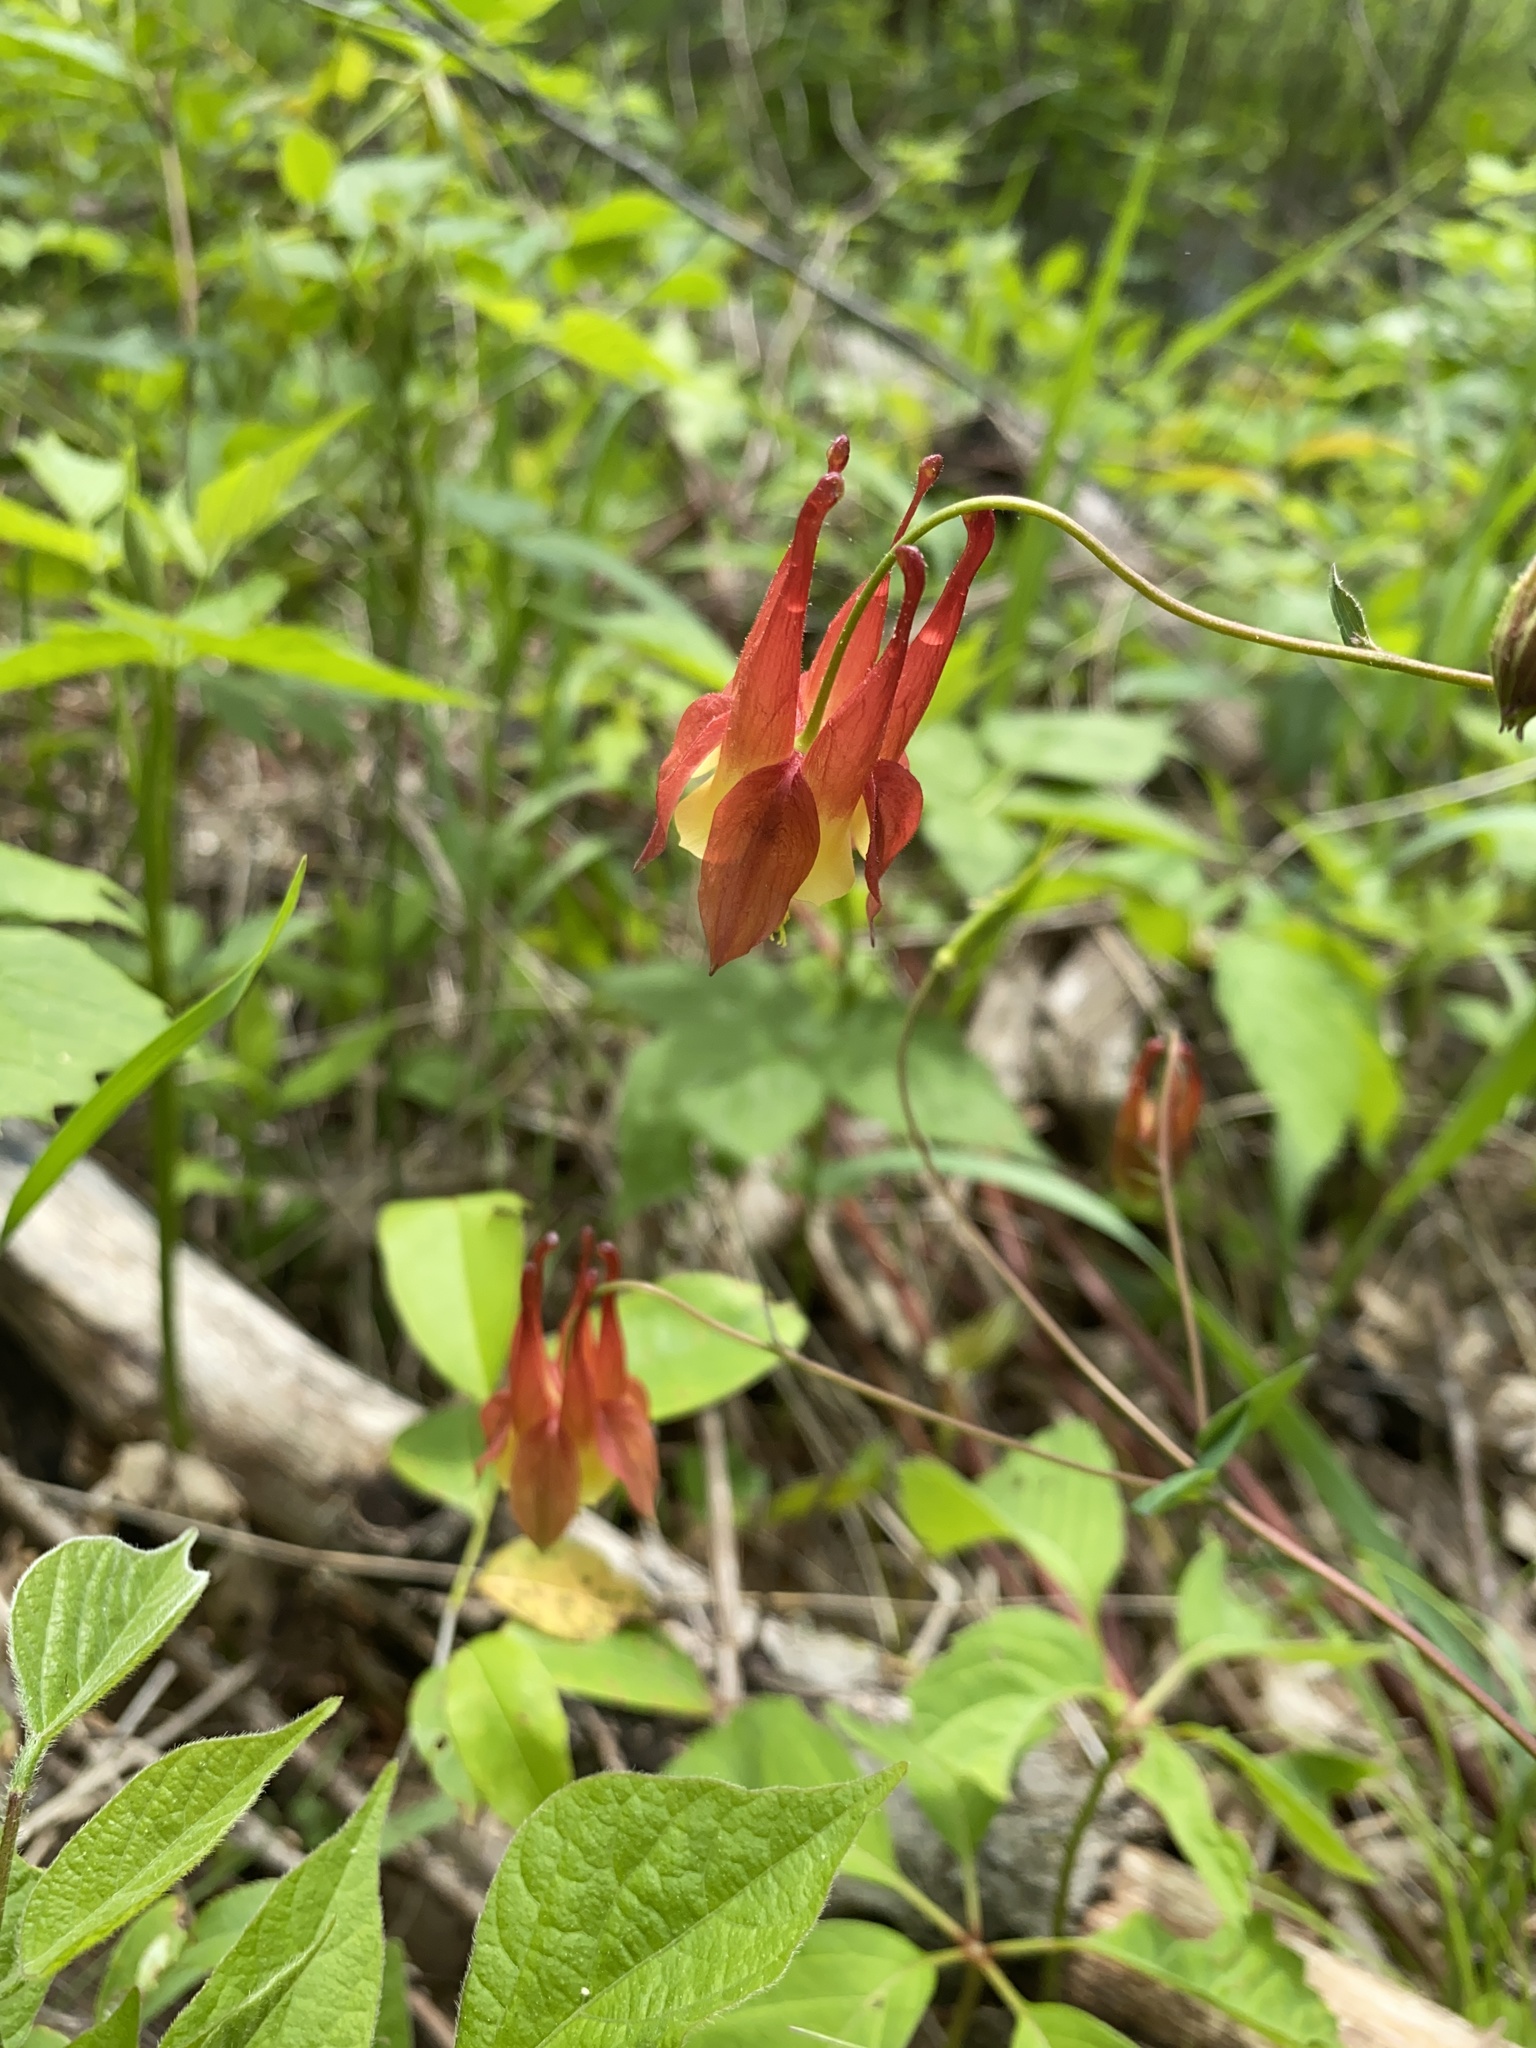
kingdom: Plantae
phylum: Tracheophyta
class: Magnoliopsida
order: Ranunculales
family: Ranunculaceae
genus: Aquilegia
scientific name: Aquilegia canadensis
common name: American columbine
